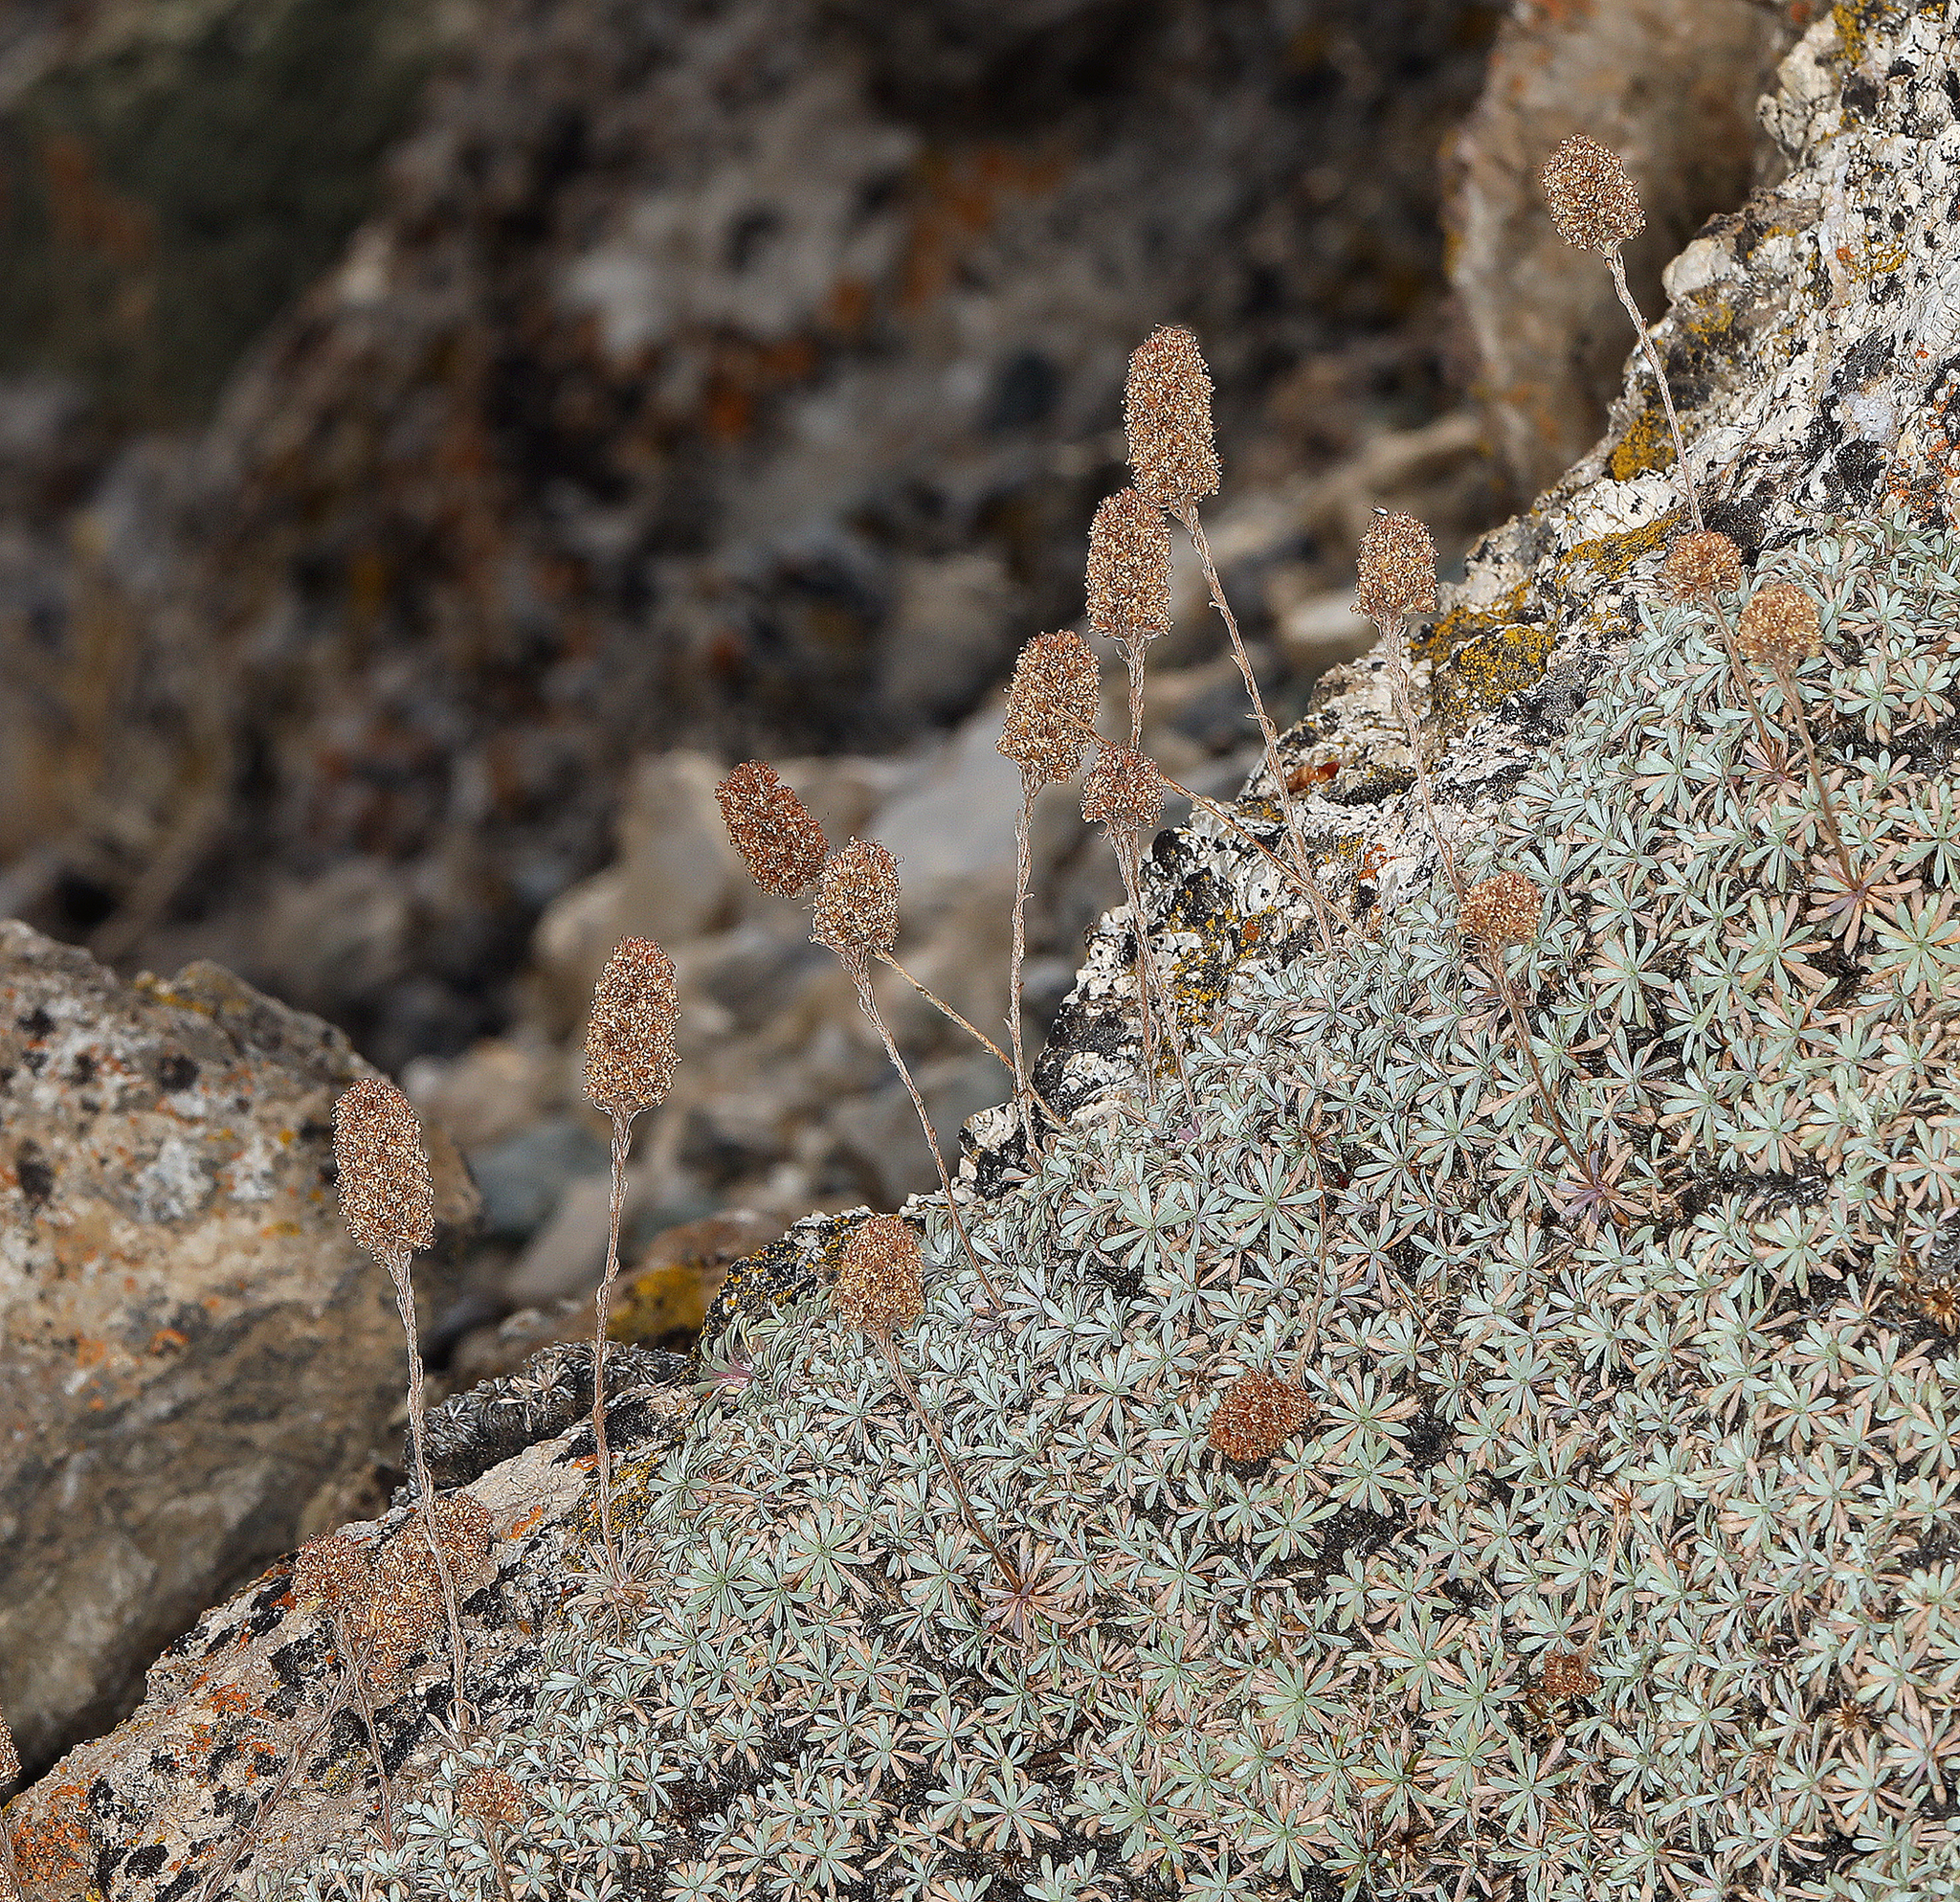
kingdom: Plantae
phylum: Tracheophyta
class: Magnoliopsida
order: Rosales
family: Rosaceae
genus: Petrophytum
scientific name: Petrophytum caespitosum
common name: Mat rockspirea
